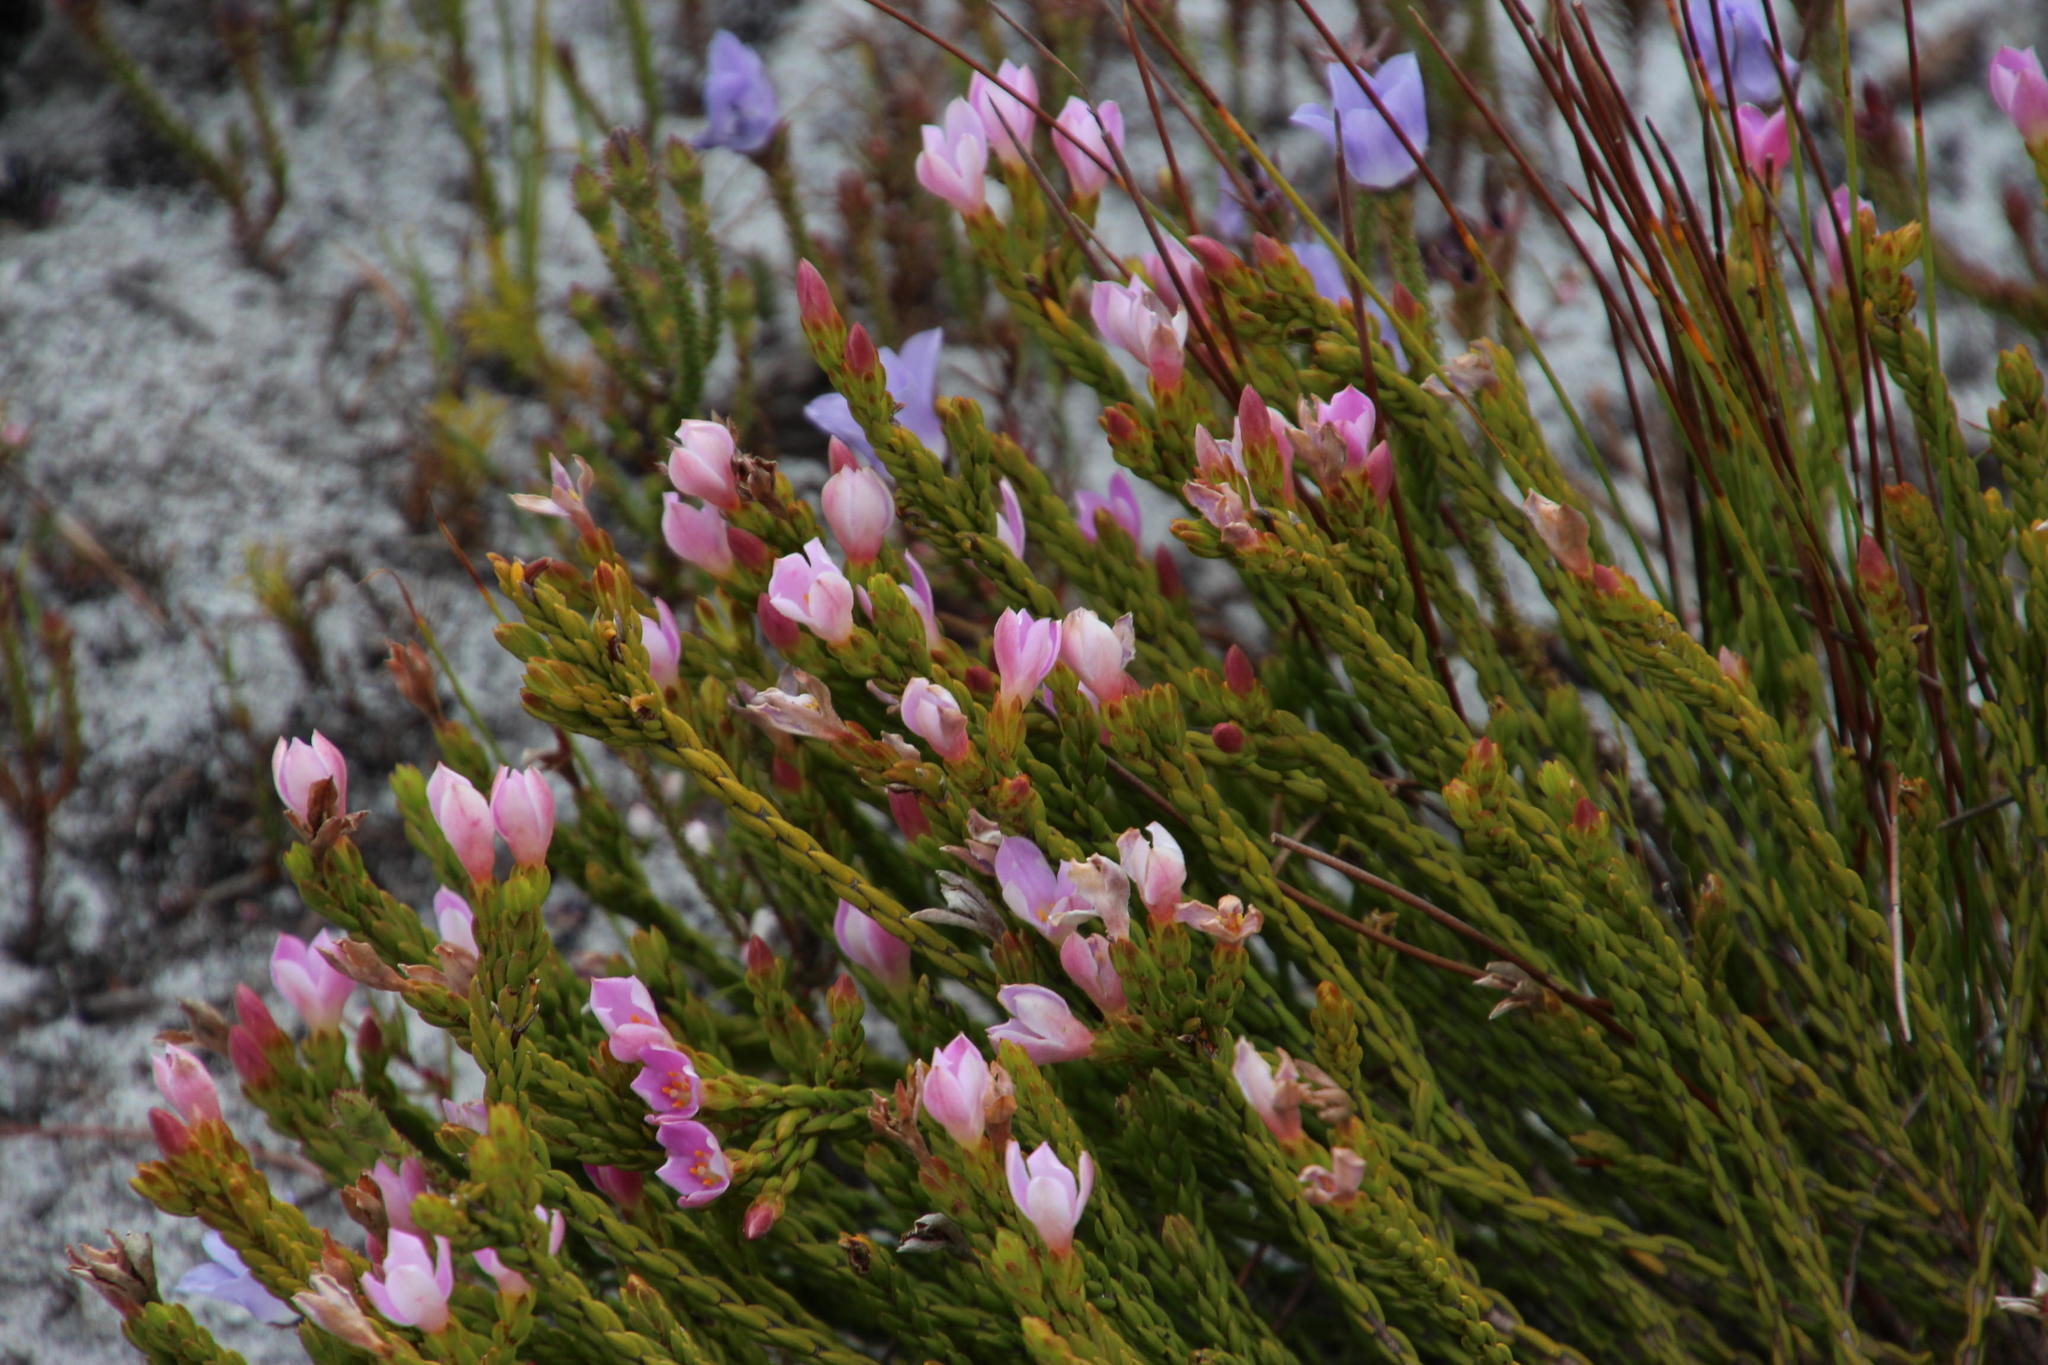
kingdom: Plantae
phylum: Tracheophyta
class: Magnoliopsida
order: Malvales
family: Thymelaeaceae
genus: Lachnaea
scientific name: Lachnaea grandiflora
